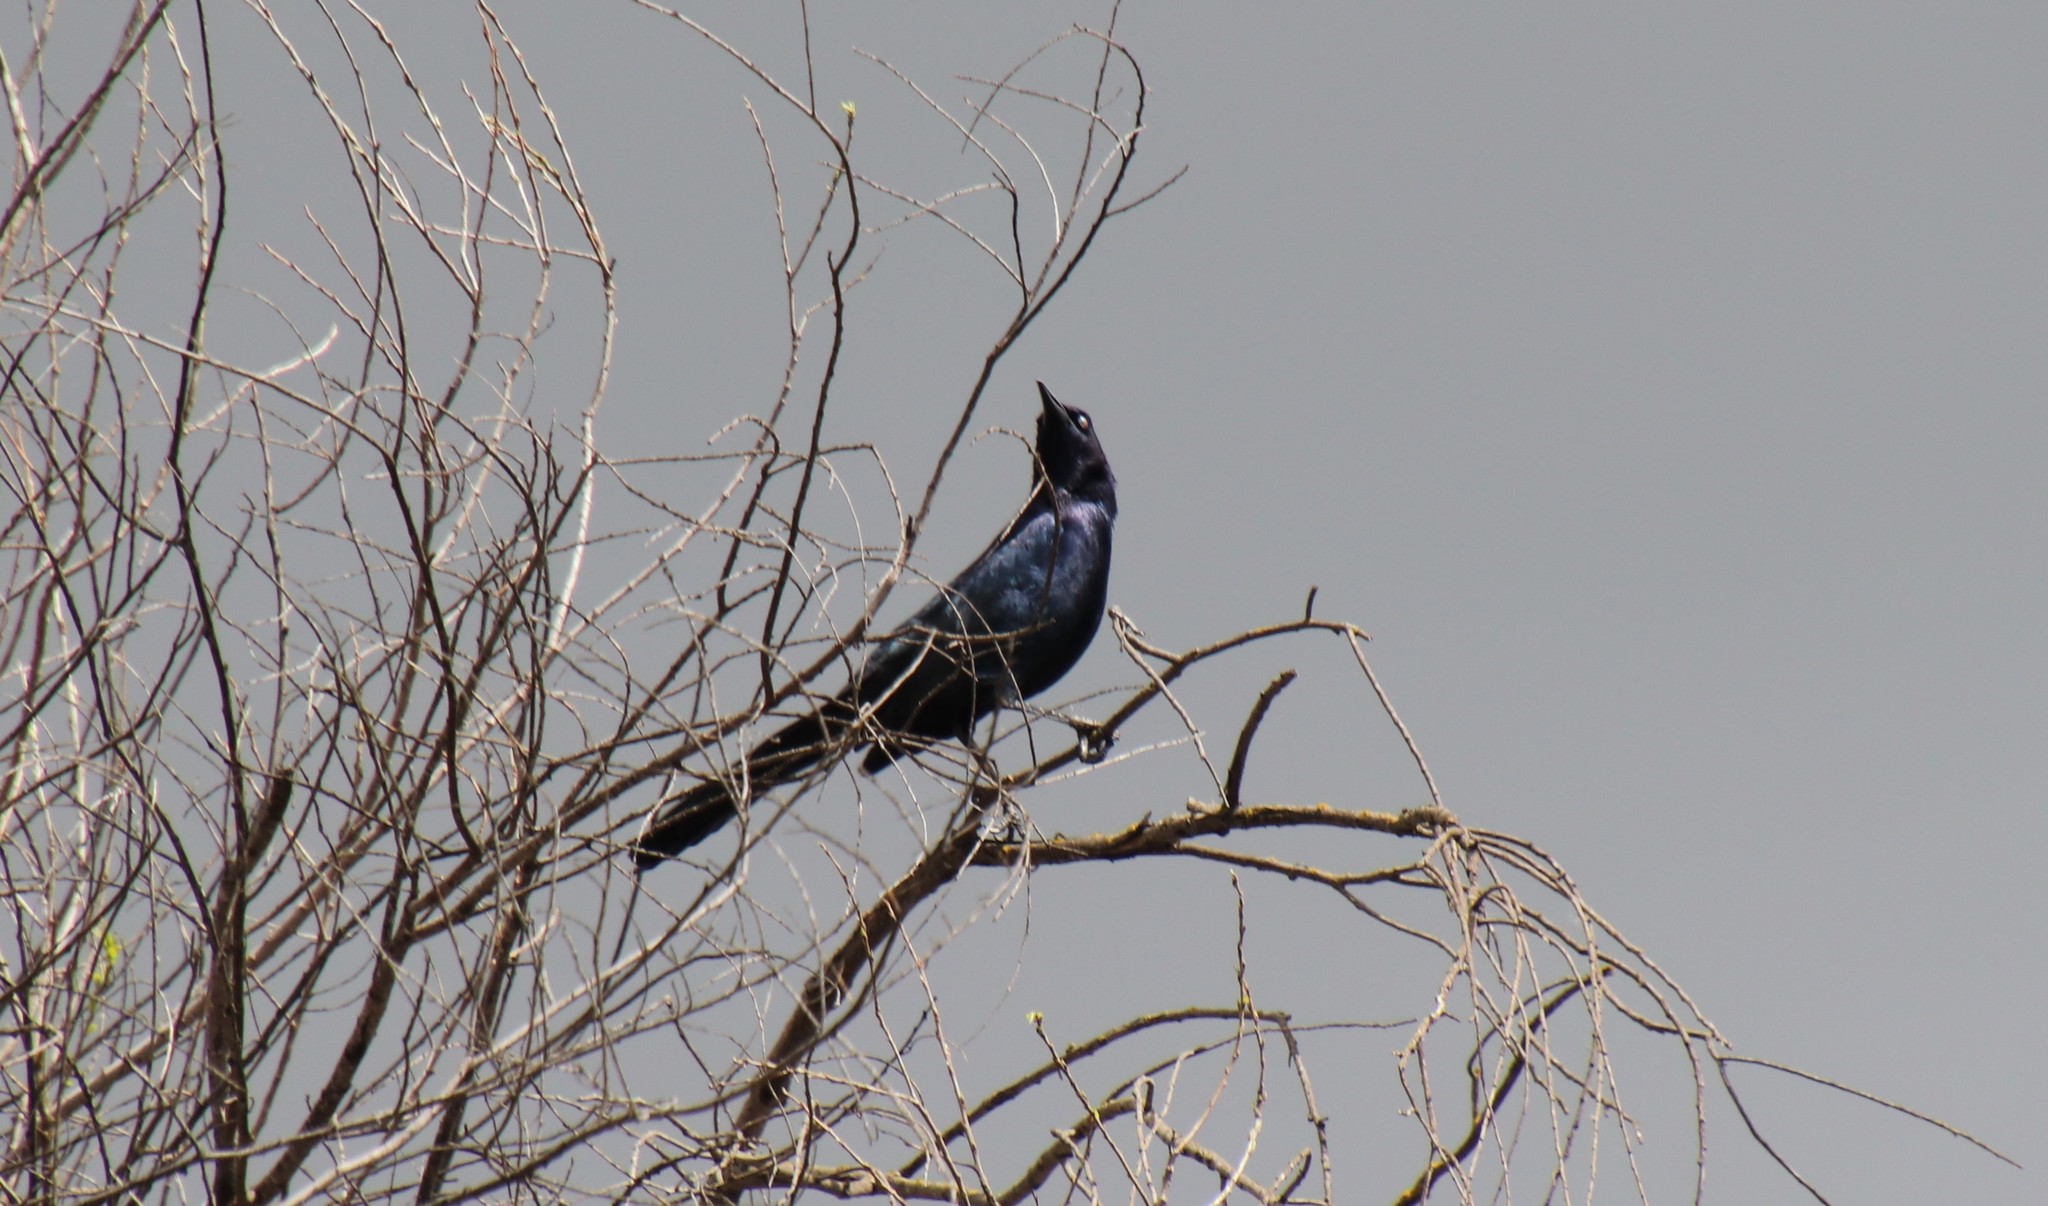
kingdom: Animalia
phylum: Chordata
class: Aves
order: Passeriformes
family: Icteridae
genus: Quiscalus
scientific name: Quiscalus mexicanus
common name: Great-tailed grackle
